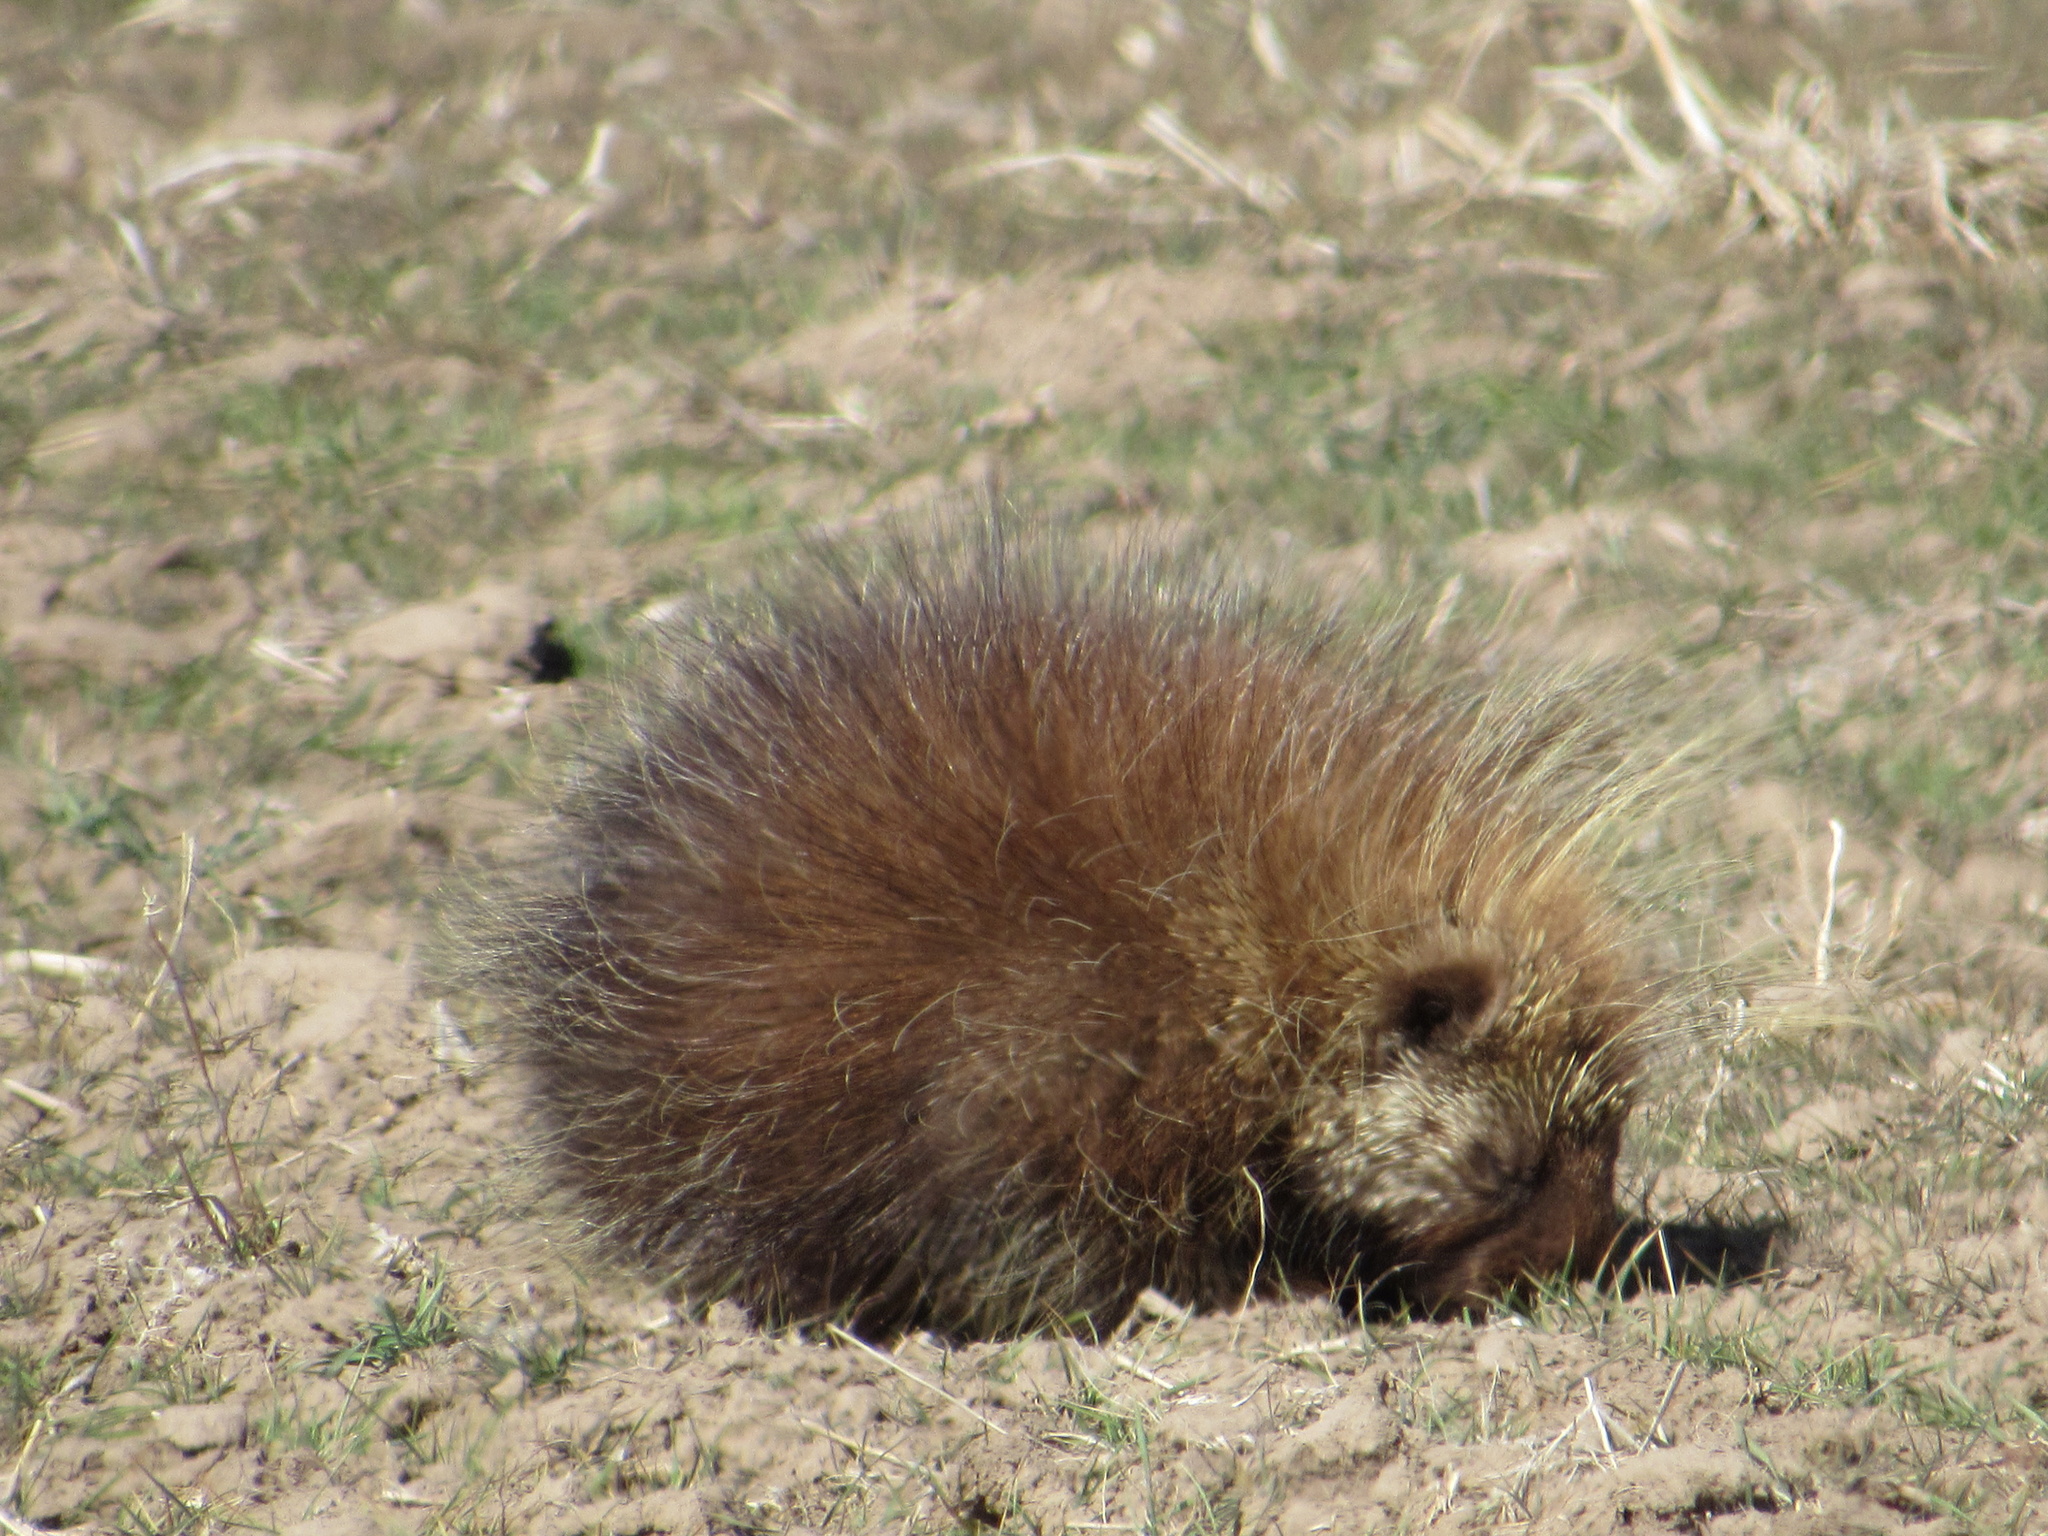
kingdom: Animalia
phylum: Chordata
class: Mammalia
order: Rodentia
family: Erethizontidae
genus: Erethizon
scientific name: Erethizon dorsatus
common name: North american porcupine
